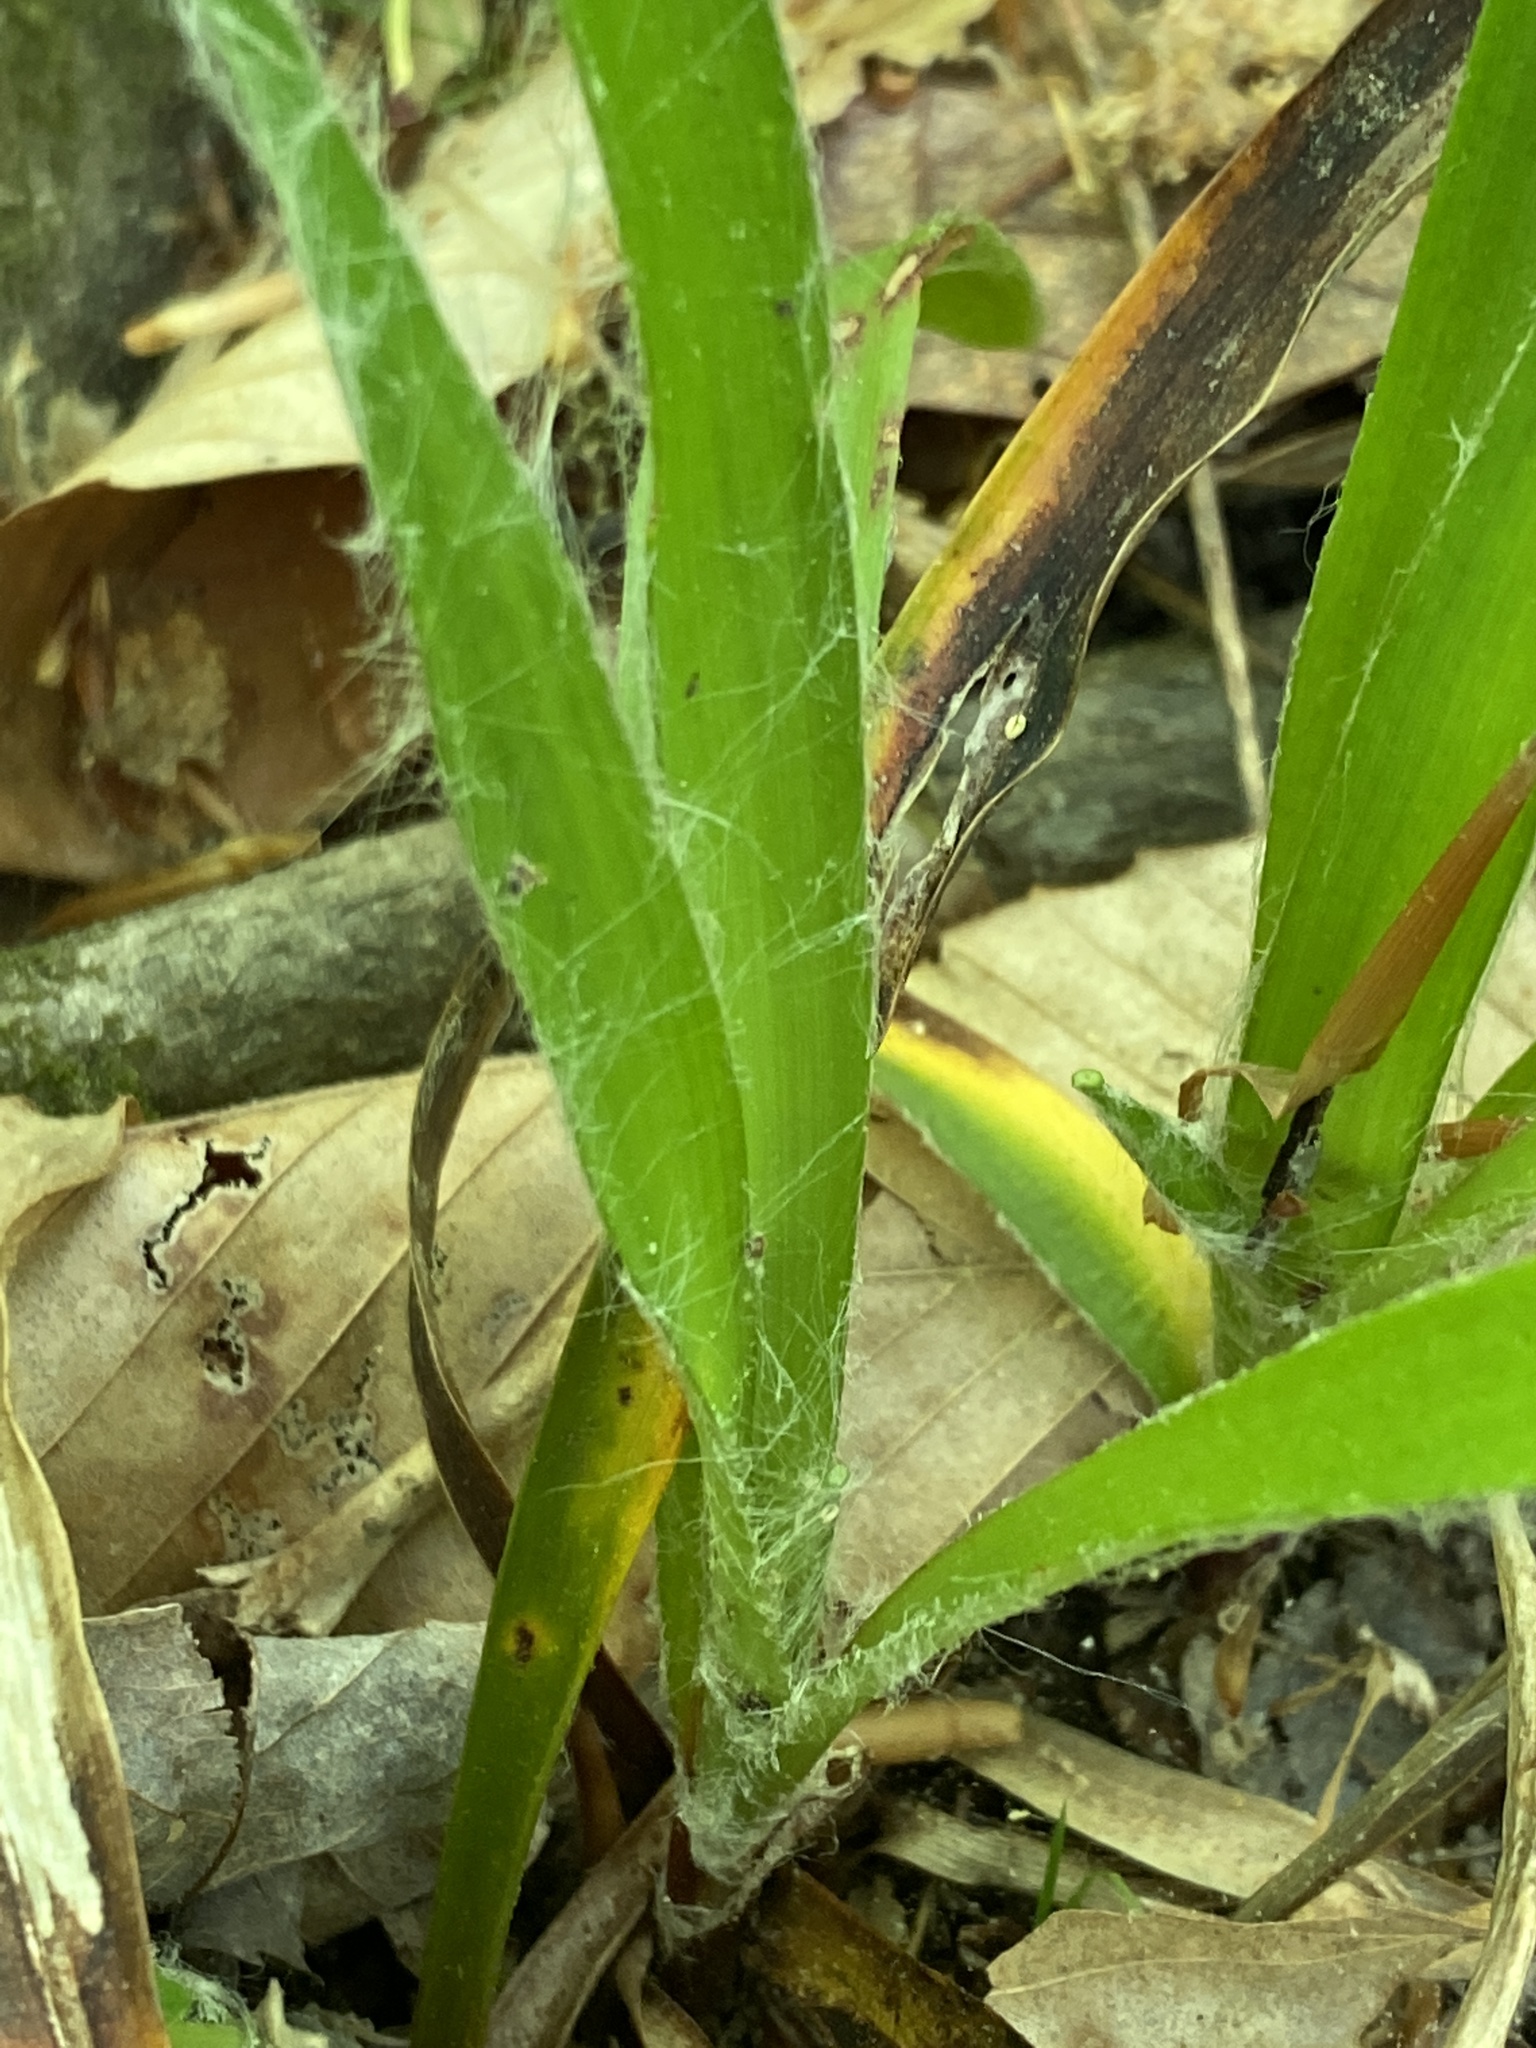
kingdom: Plantae
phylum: Tracheophyta
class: Liliopsida
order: Poales
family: Juncaceae
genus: Luzula
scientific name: Luzula acuminata
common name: Hairy woodrush
